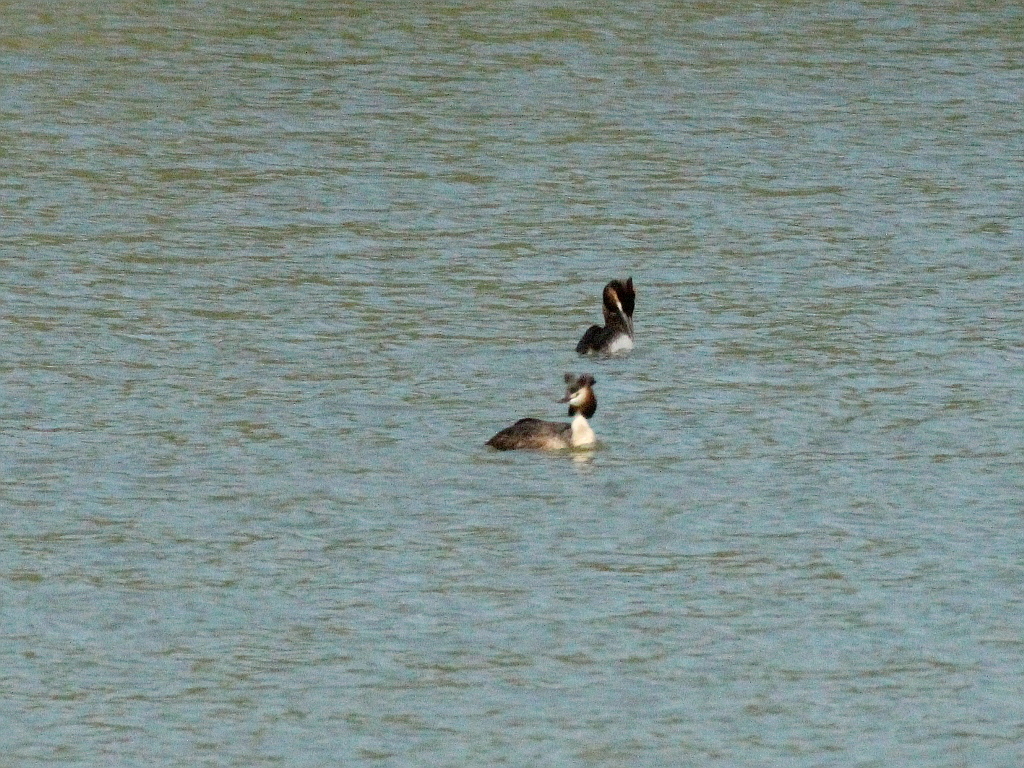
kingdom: Animalia
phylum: Chordata
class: Aves
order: Podicipediformes
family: Podicipedidae
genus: Podiceps
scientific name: Podiceps cristatus
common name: Great crested grebe
